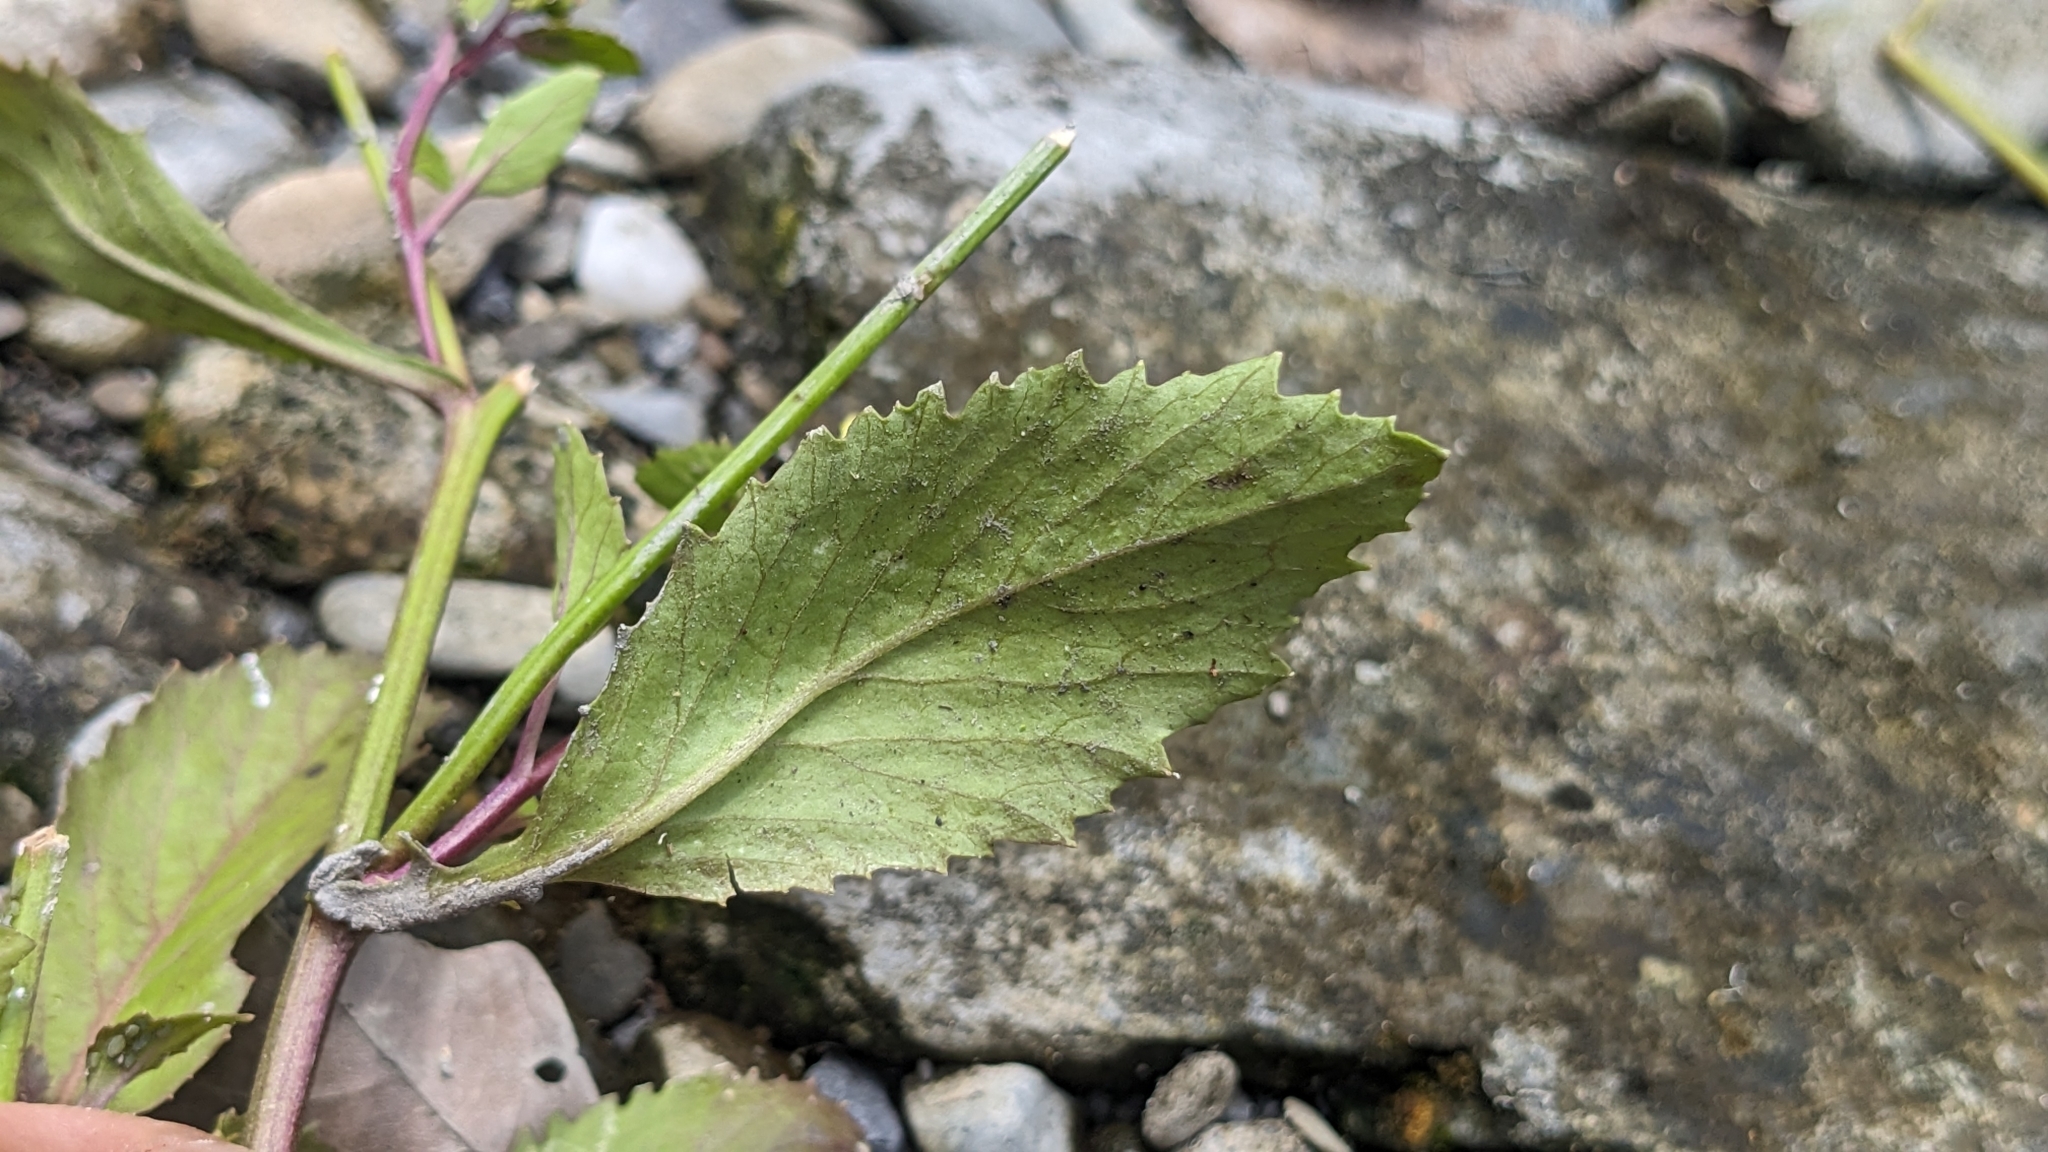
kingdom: Plantae
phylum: Tracheophyta
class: Magnoliopsida
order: Brassicales
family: Brassicaceae
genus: Rorippa
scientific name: Rorippa indica
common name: Variableleaf yellowcress
